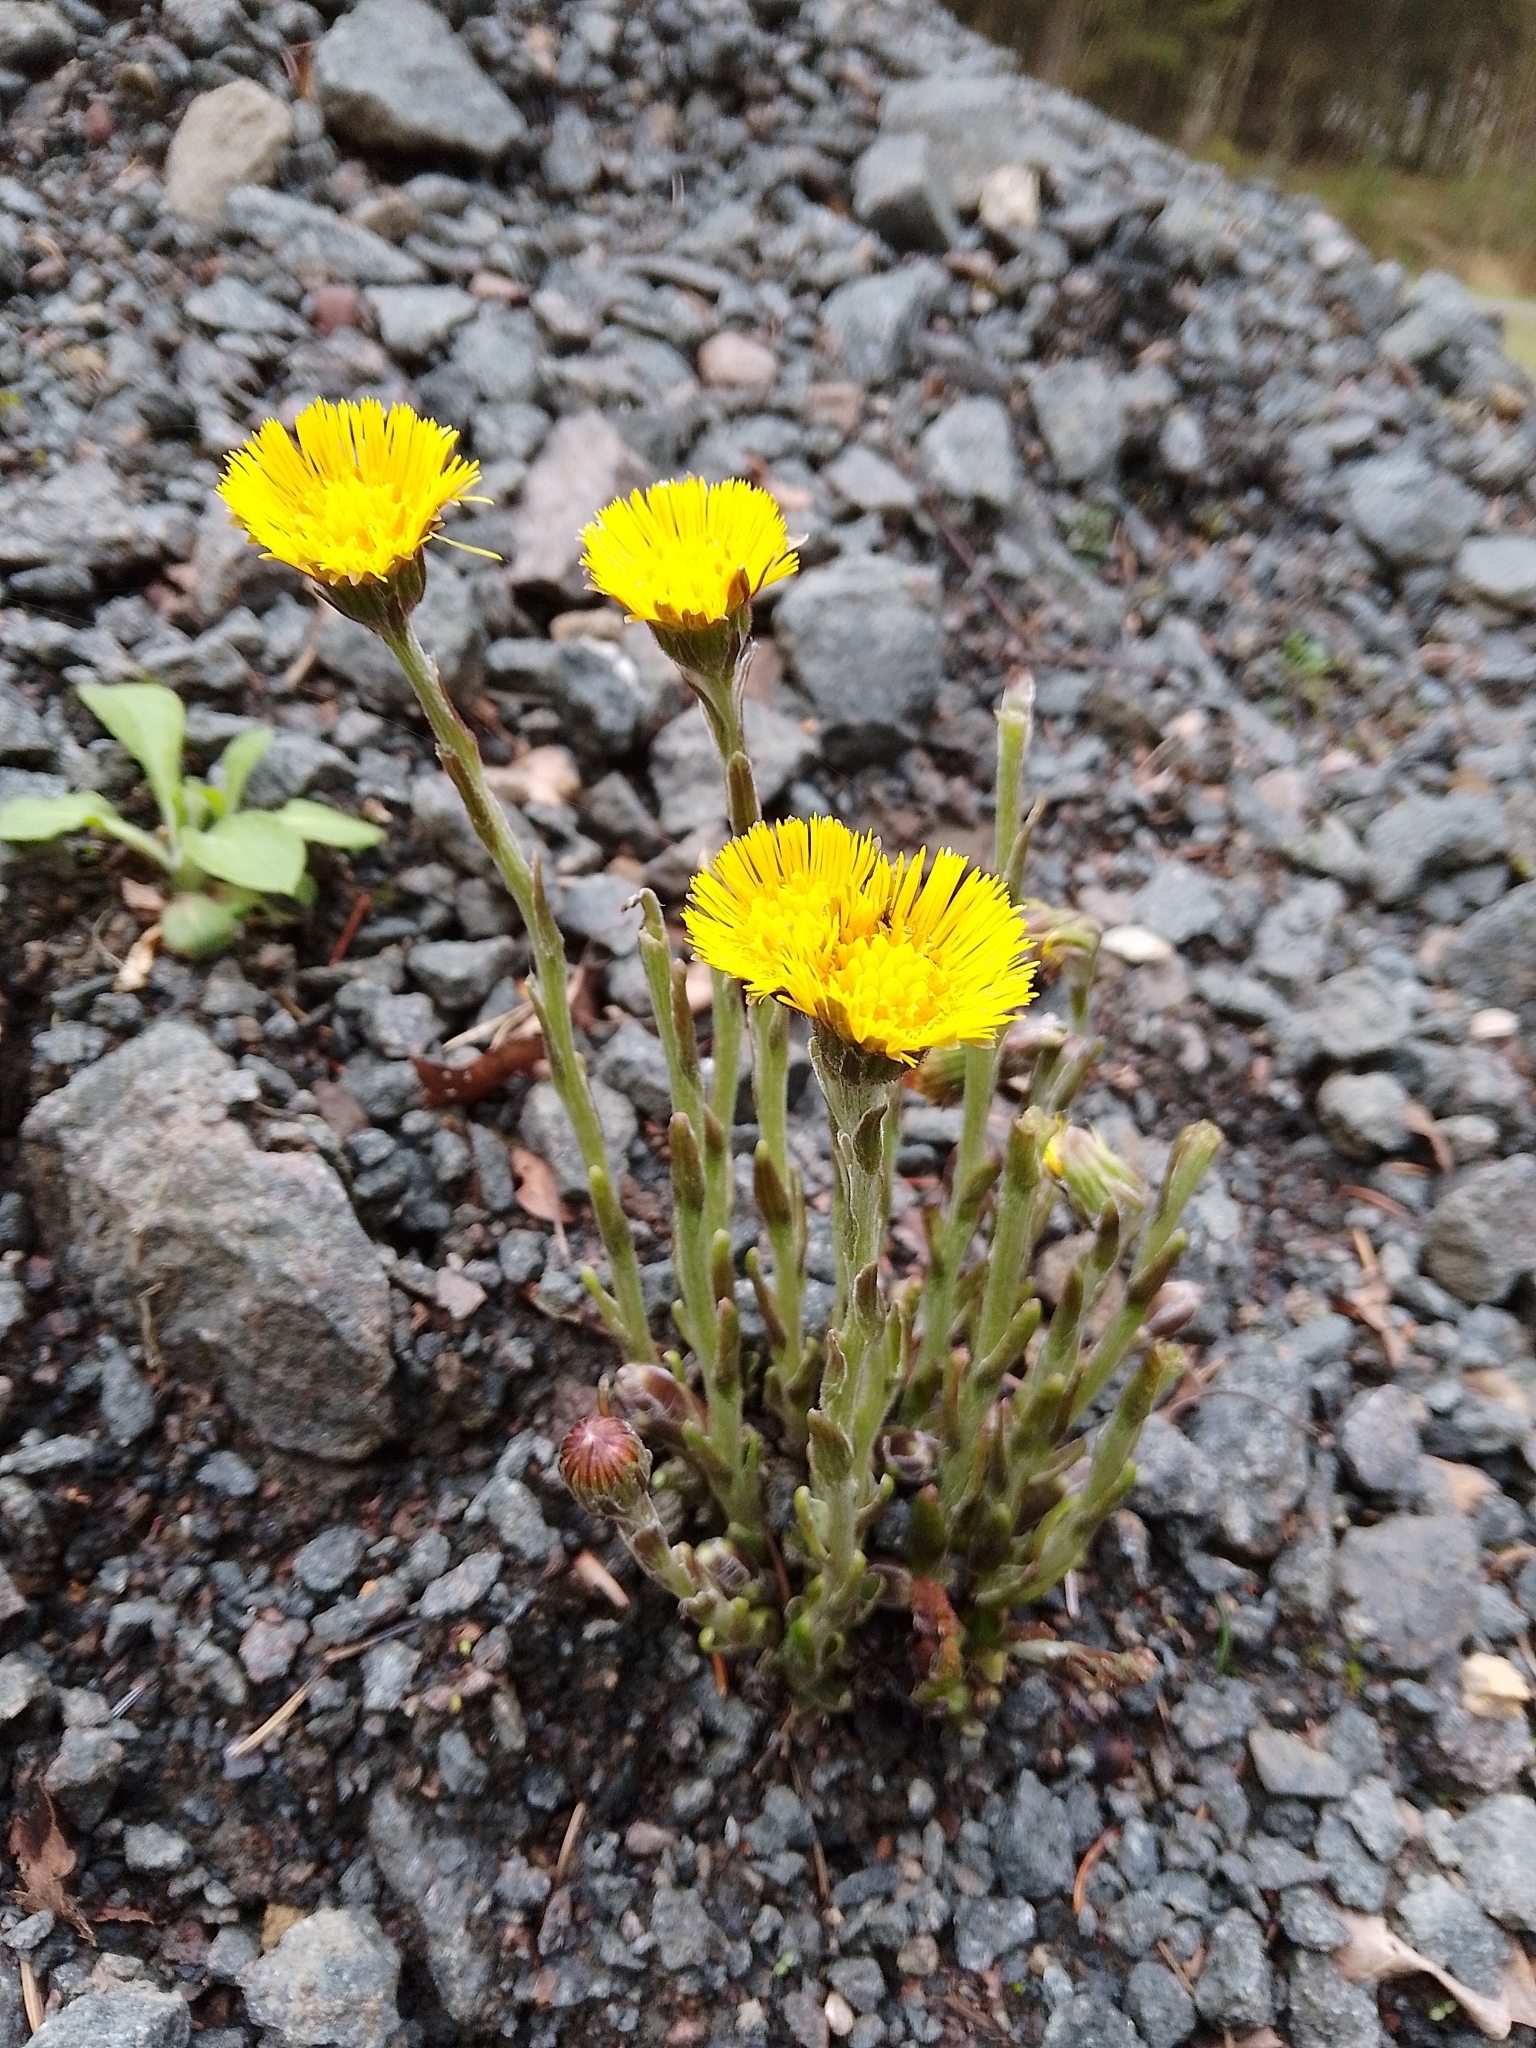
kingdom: Plantae
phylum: Tracheophyta
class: Magnoliopsida
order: Asterales
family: Asteraceae
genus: Tussilago
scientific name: Tussilago farfara
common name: Coltsfoot
